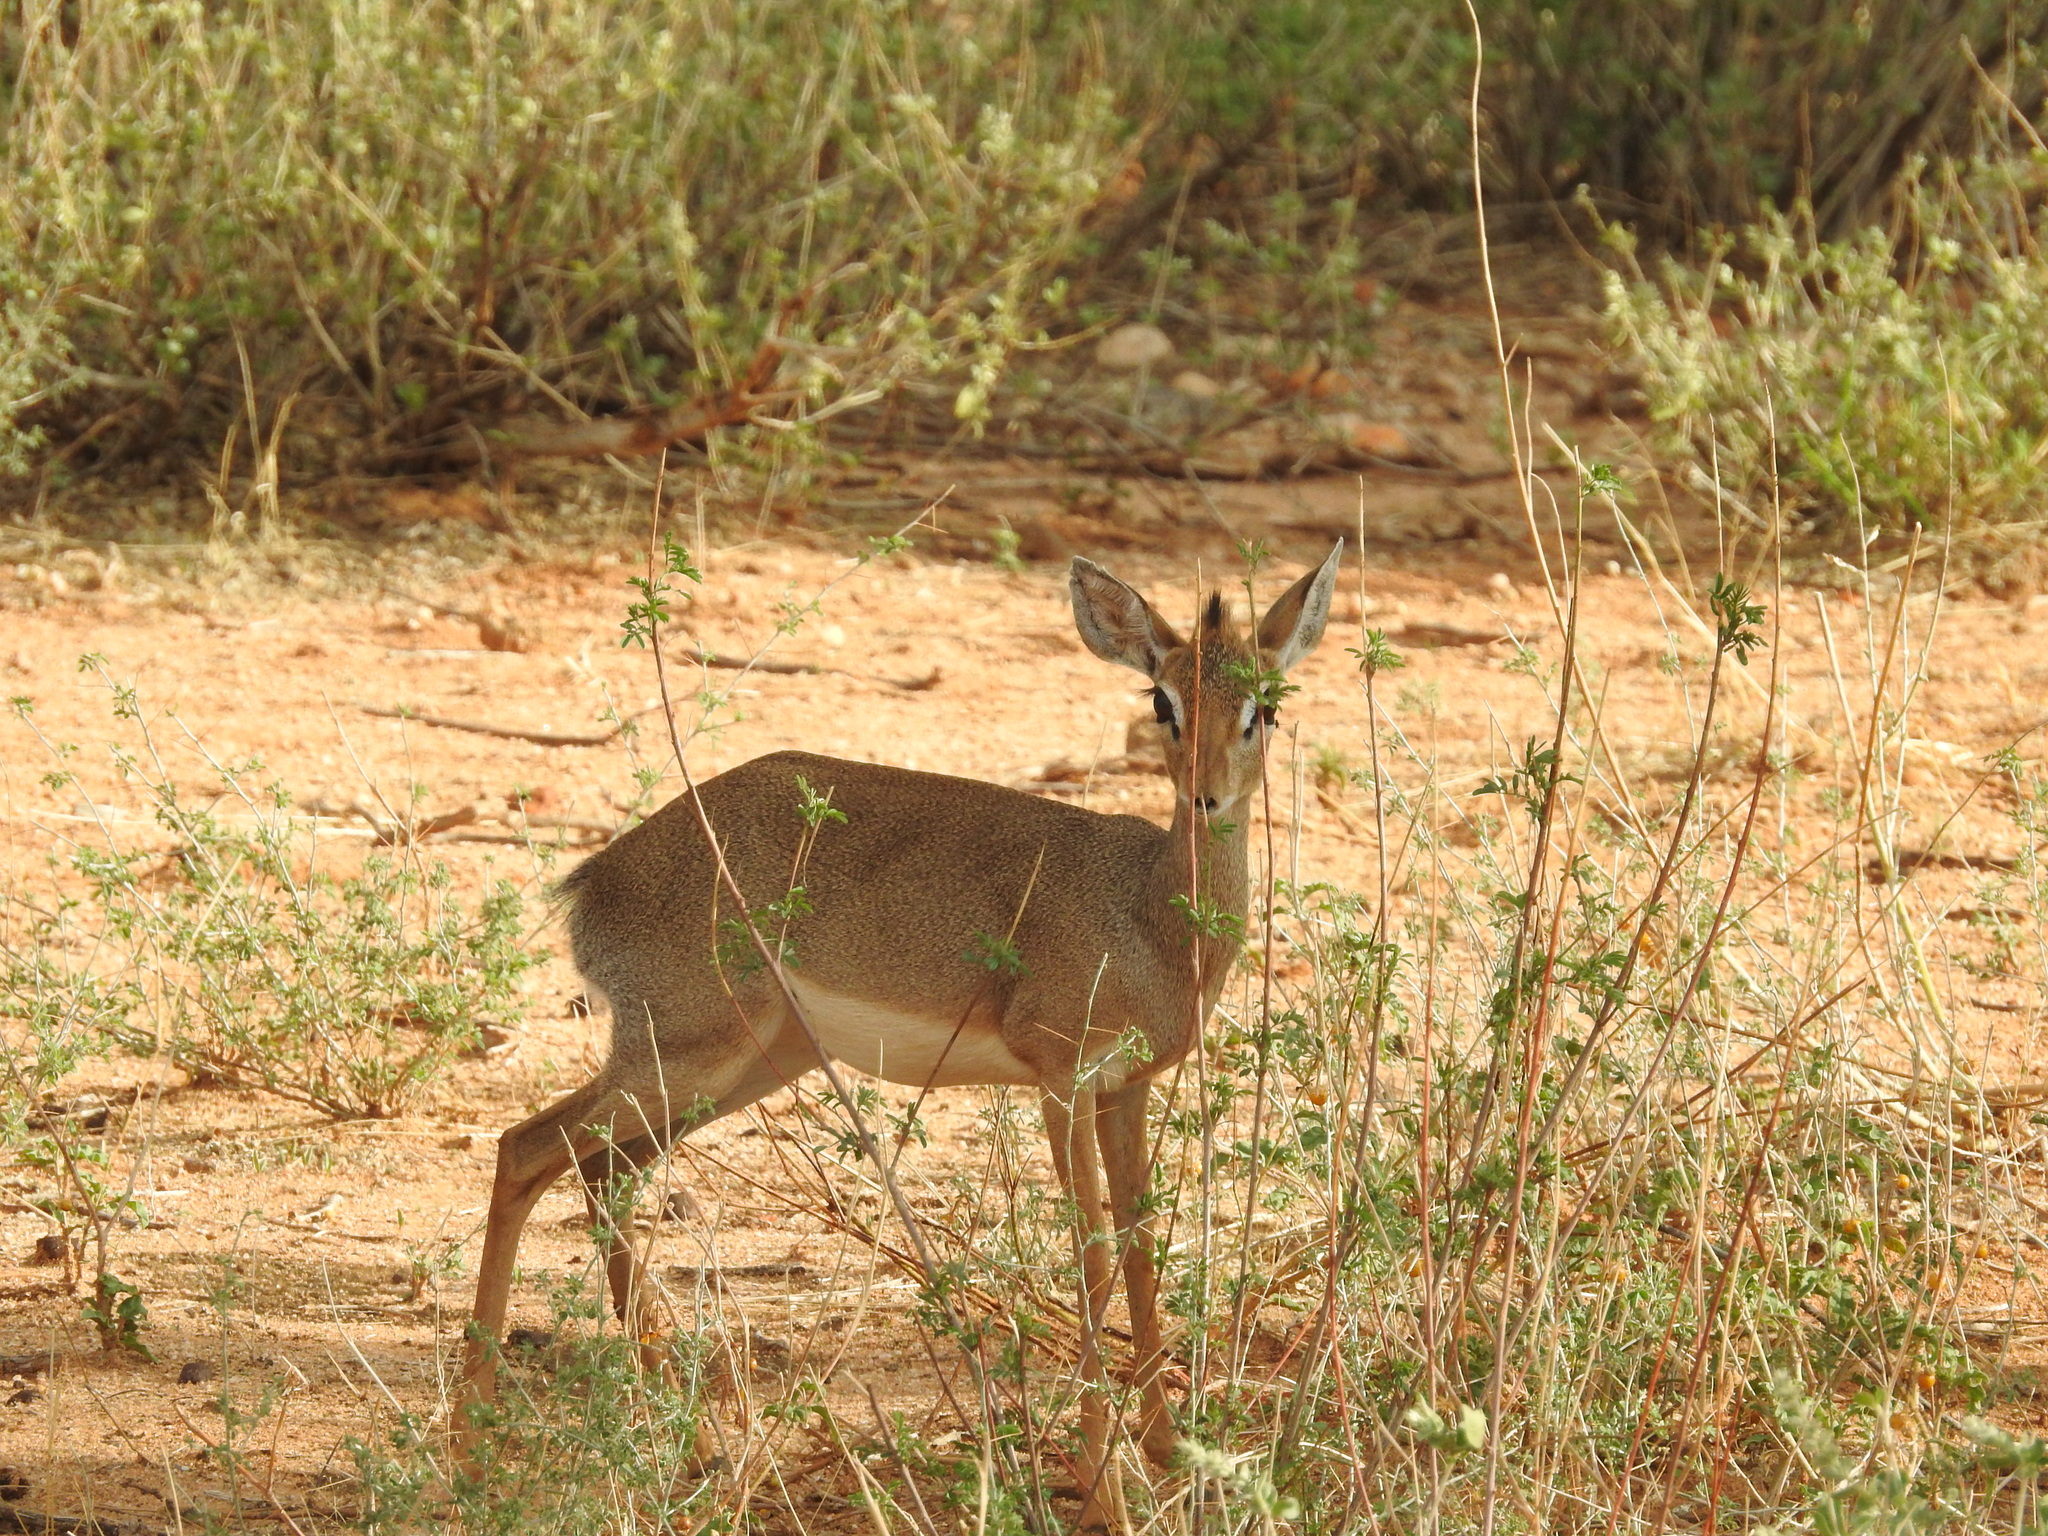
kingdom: Animalia
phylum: Chordata
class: Mammalia
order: Artiodactyla
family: Bovidae
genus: Madoqua
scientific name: Madoqua kirkii
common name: Kirk's dik-dik
